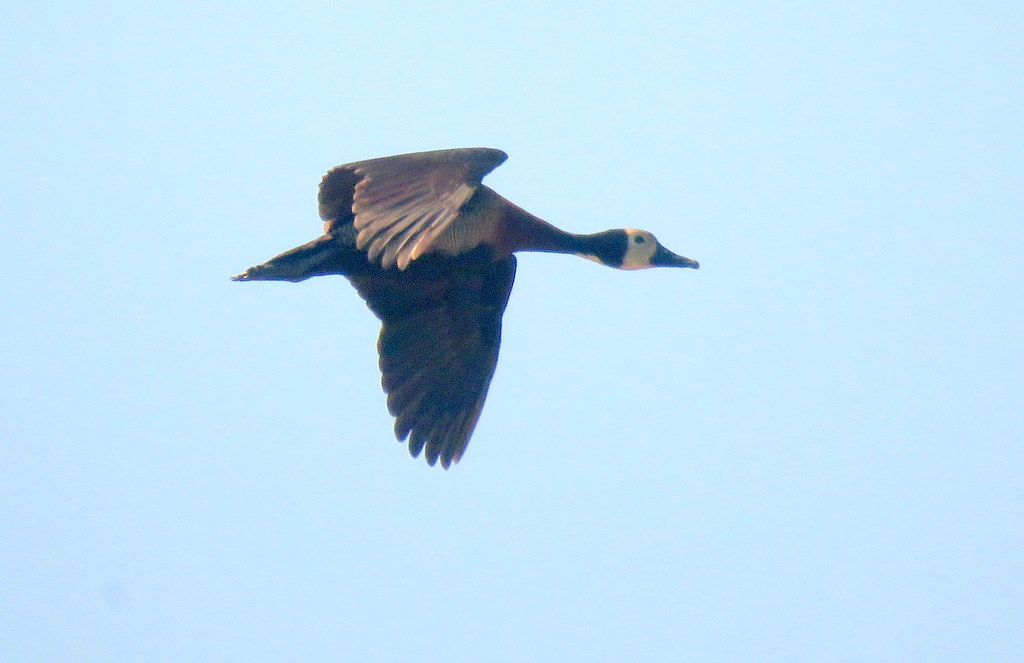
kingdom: Animalia
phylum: Chordata
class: Aves
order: Anseriformes
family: Anatidae
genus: Dendrocygna
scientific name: Dendrocygna viduata
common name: White-faced whistling duck
